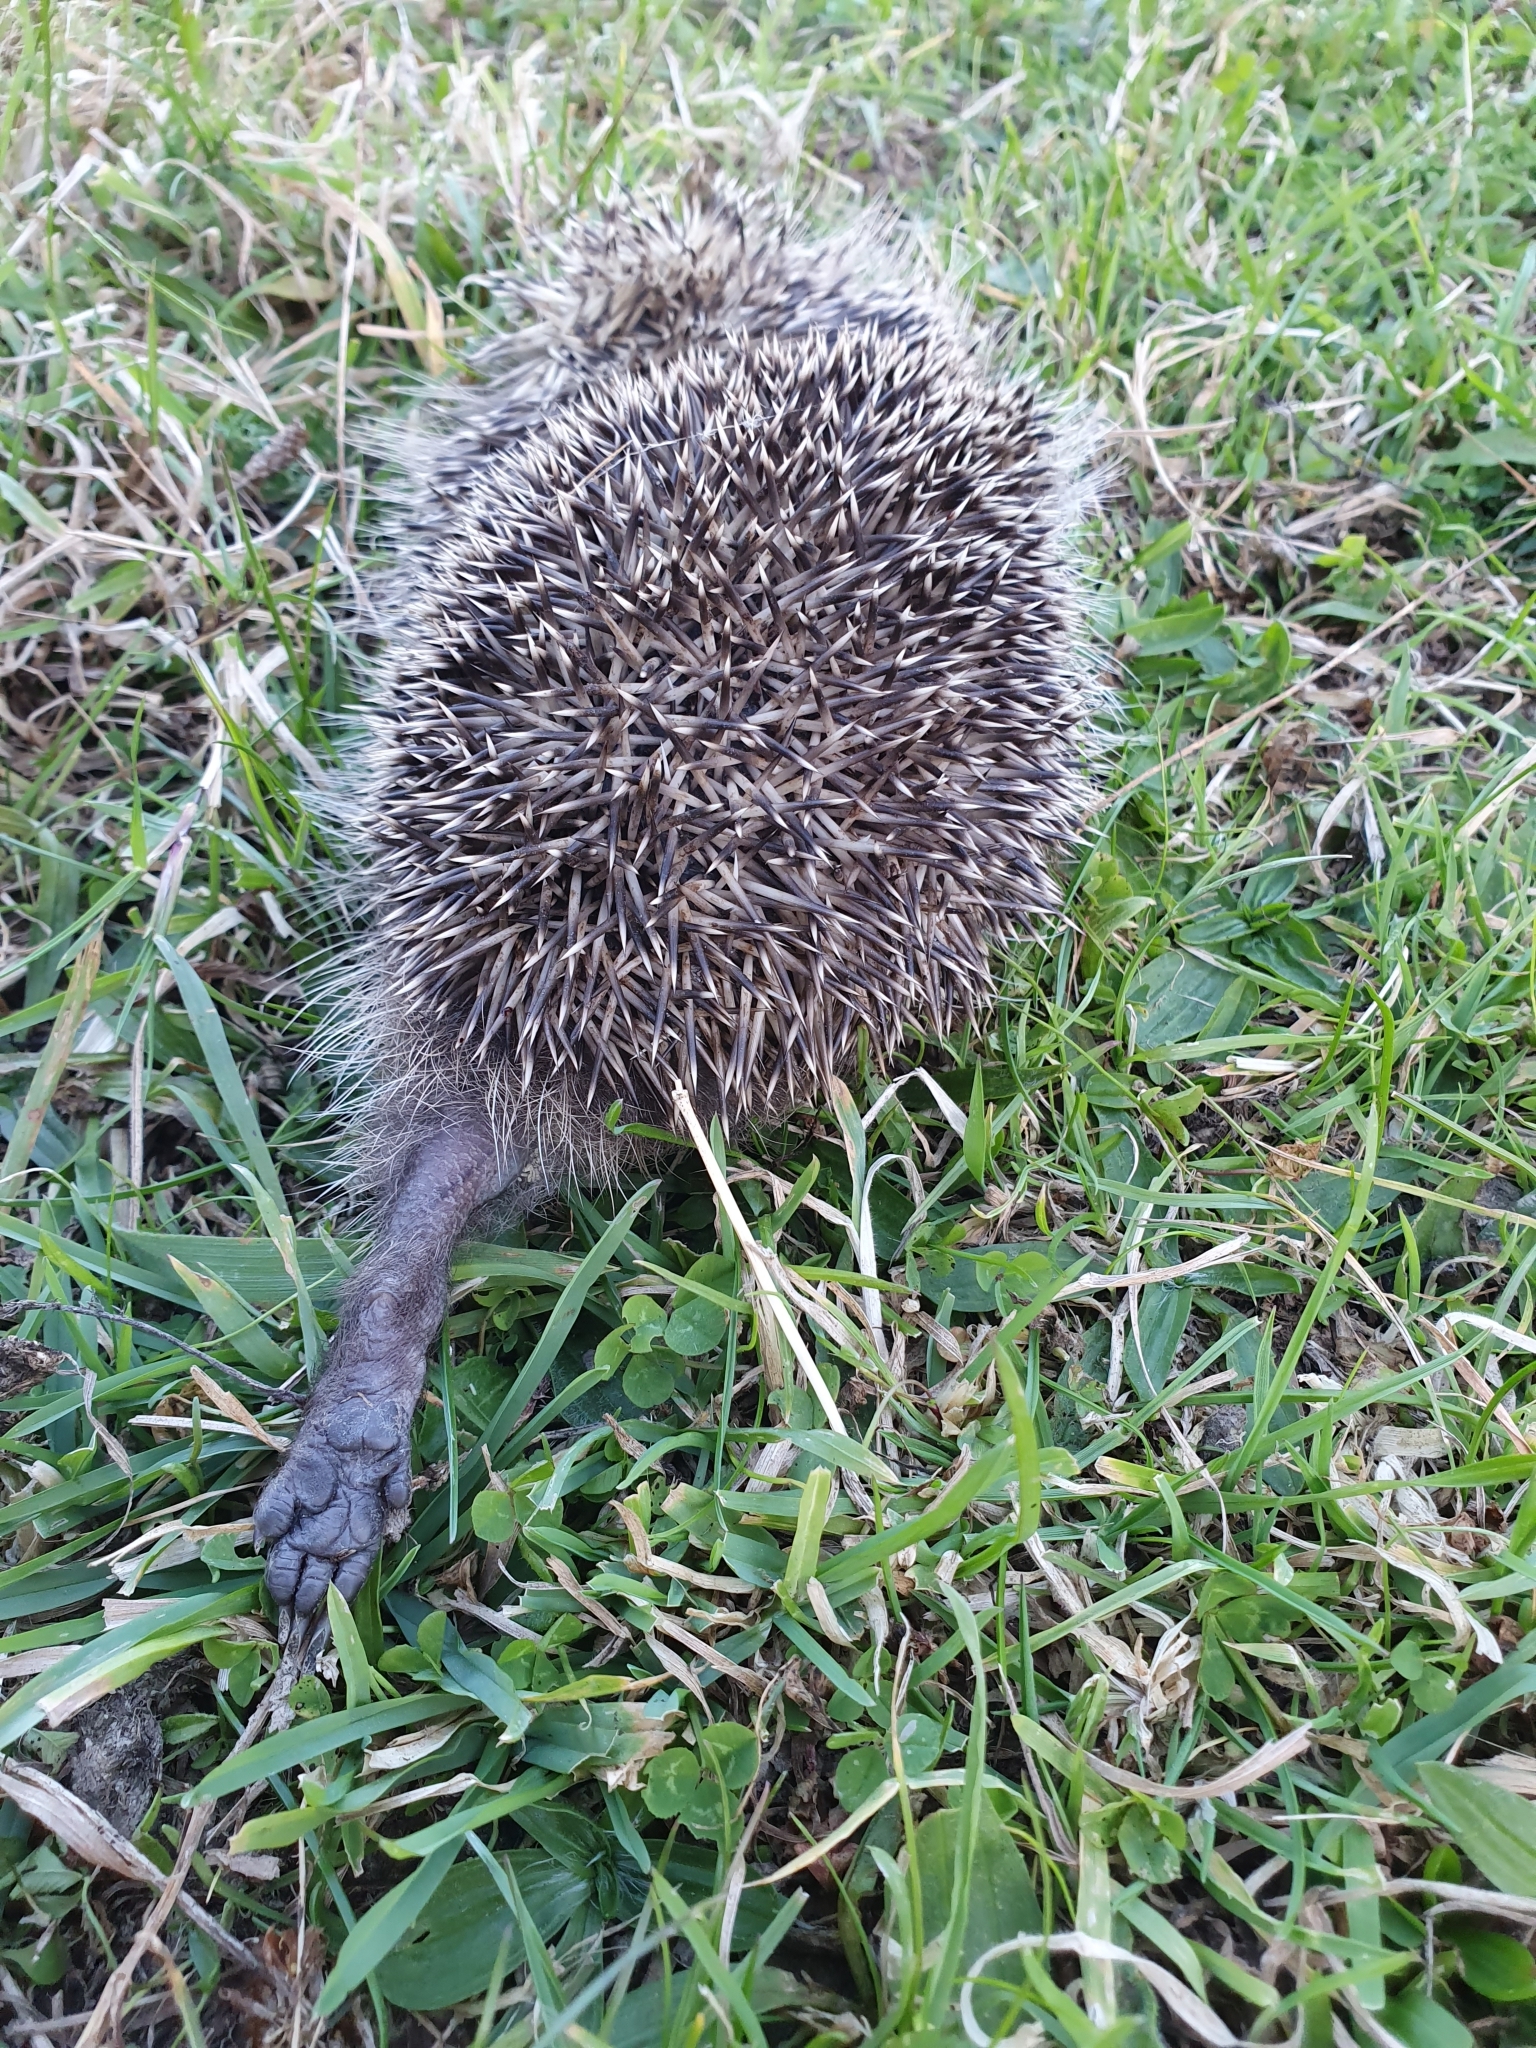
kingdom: Animalia
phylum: Chordata
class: Mammalia
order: Erinaceomorpha
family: Erinaceidae
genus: Erinaceus
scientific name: Erinaceus europaeus
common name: West european hedgehog
